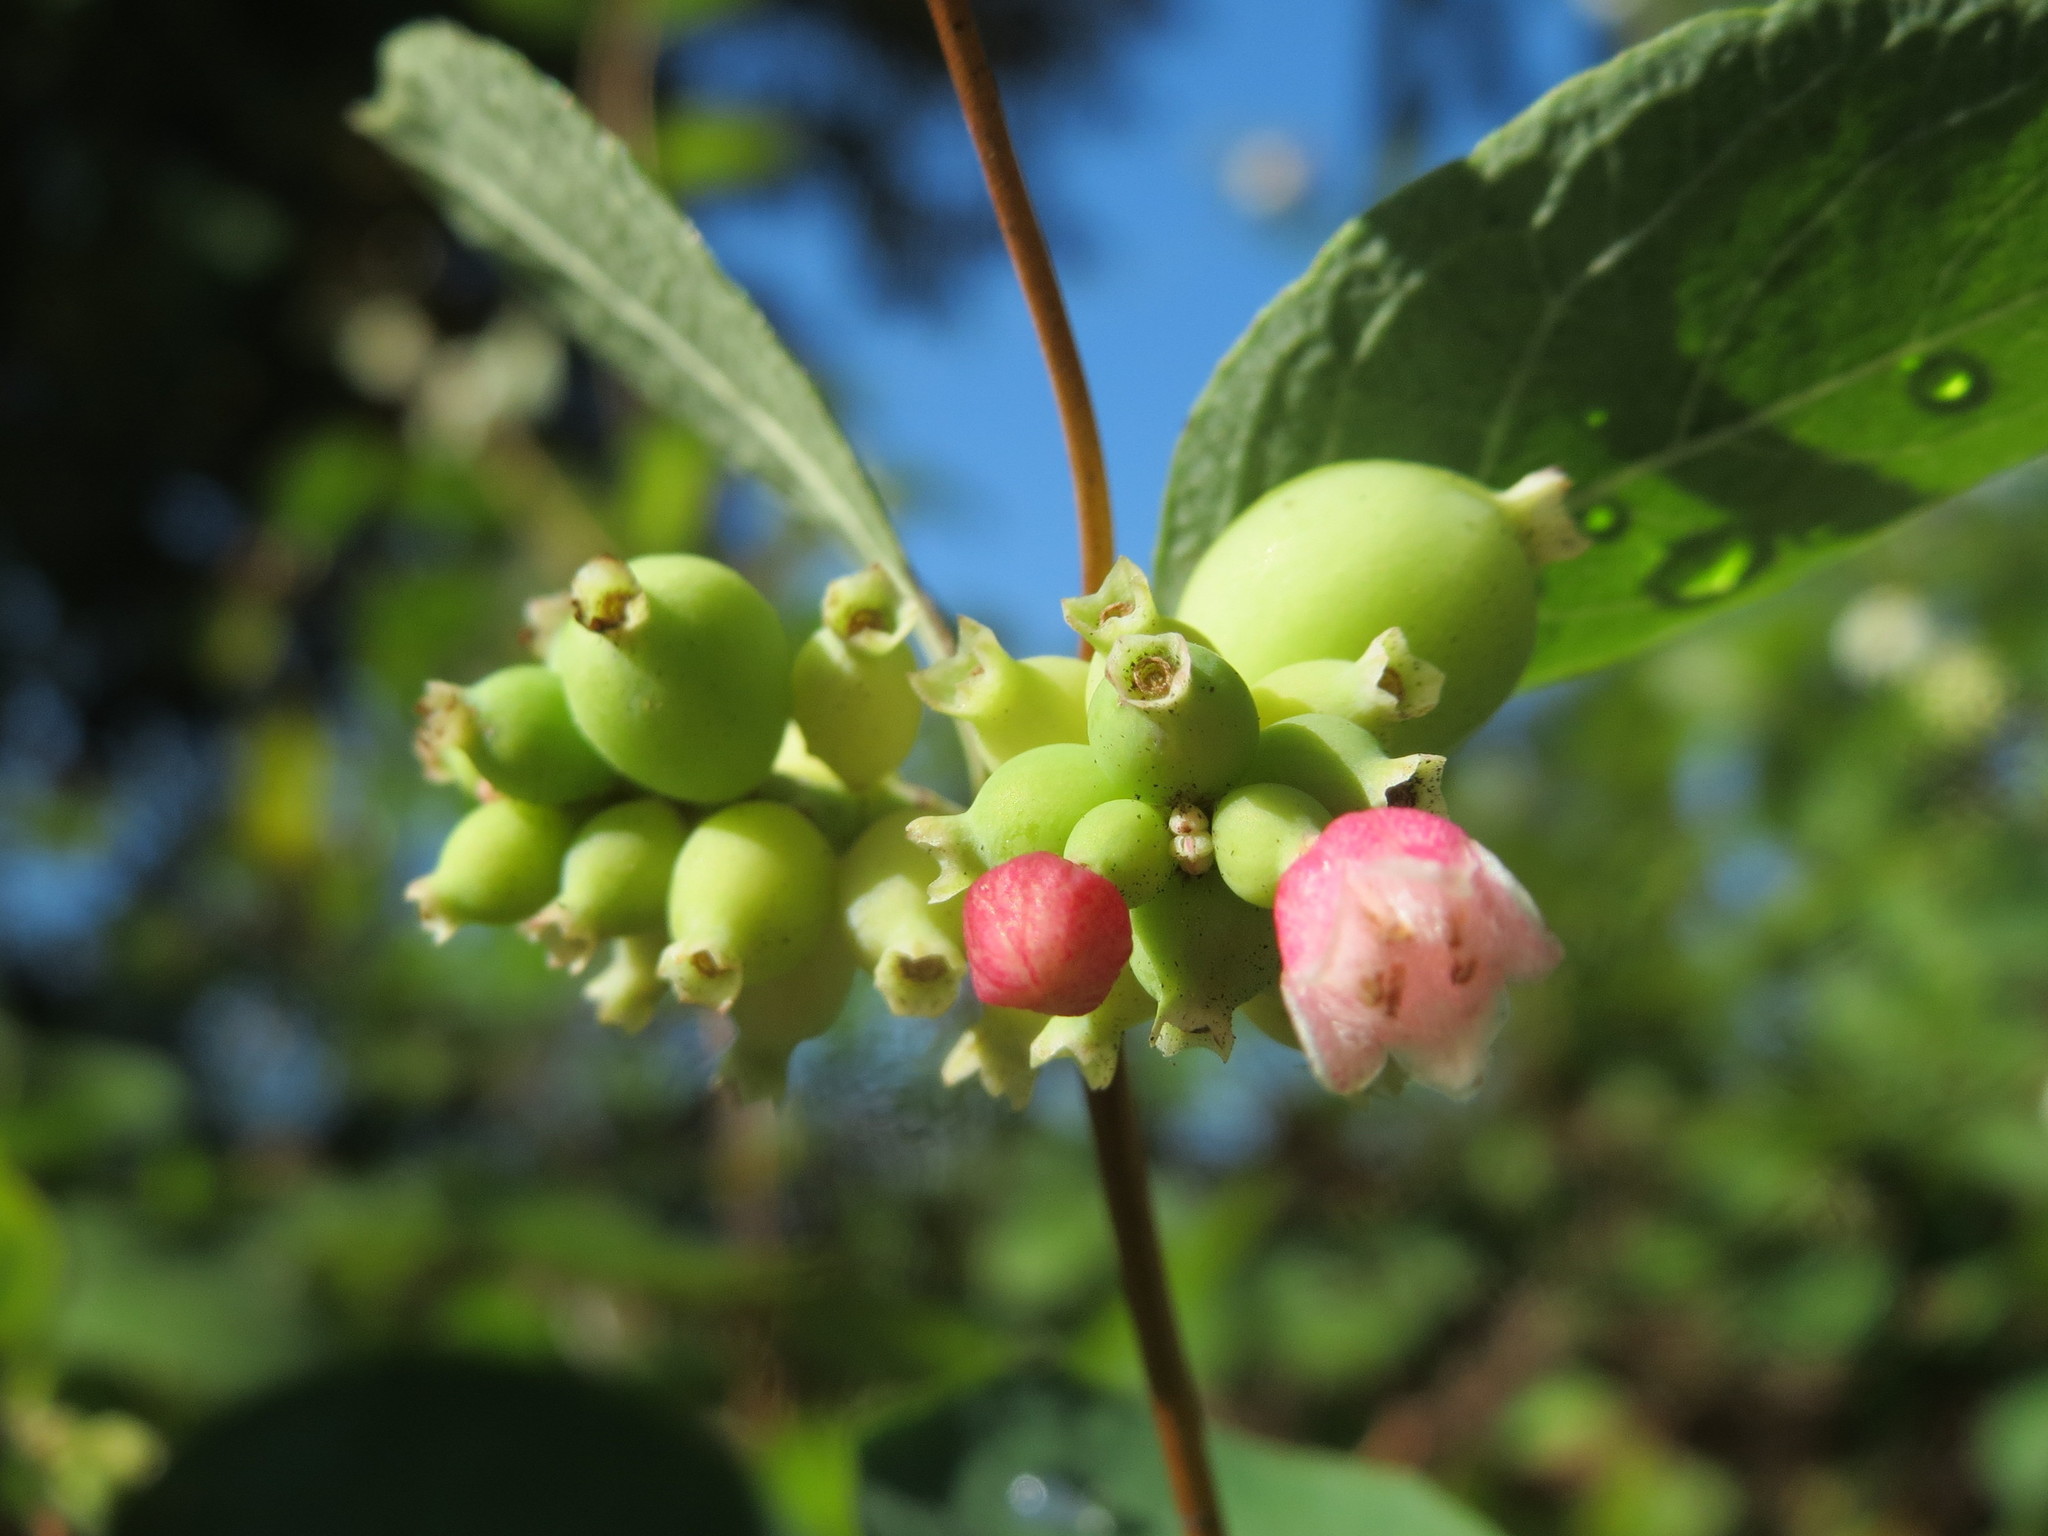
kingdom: Plantae
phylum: Tracheophyta
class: Magnoliopsida
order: Dipsacales
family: Caprifoliaceae
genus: Symphoricarpos
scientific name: Symphoricarpos albus
